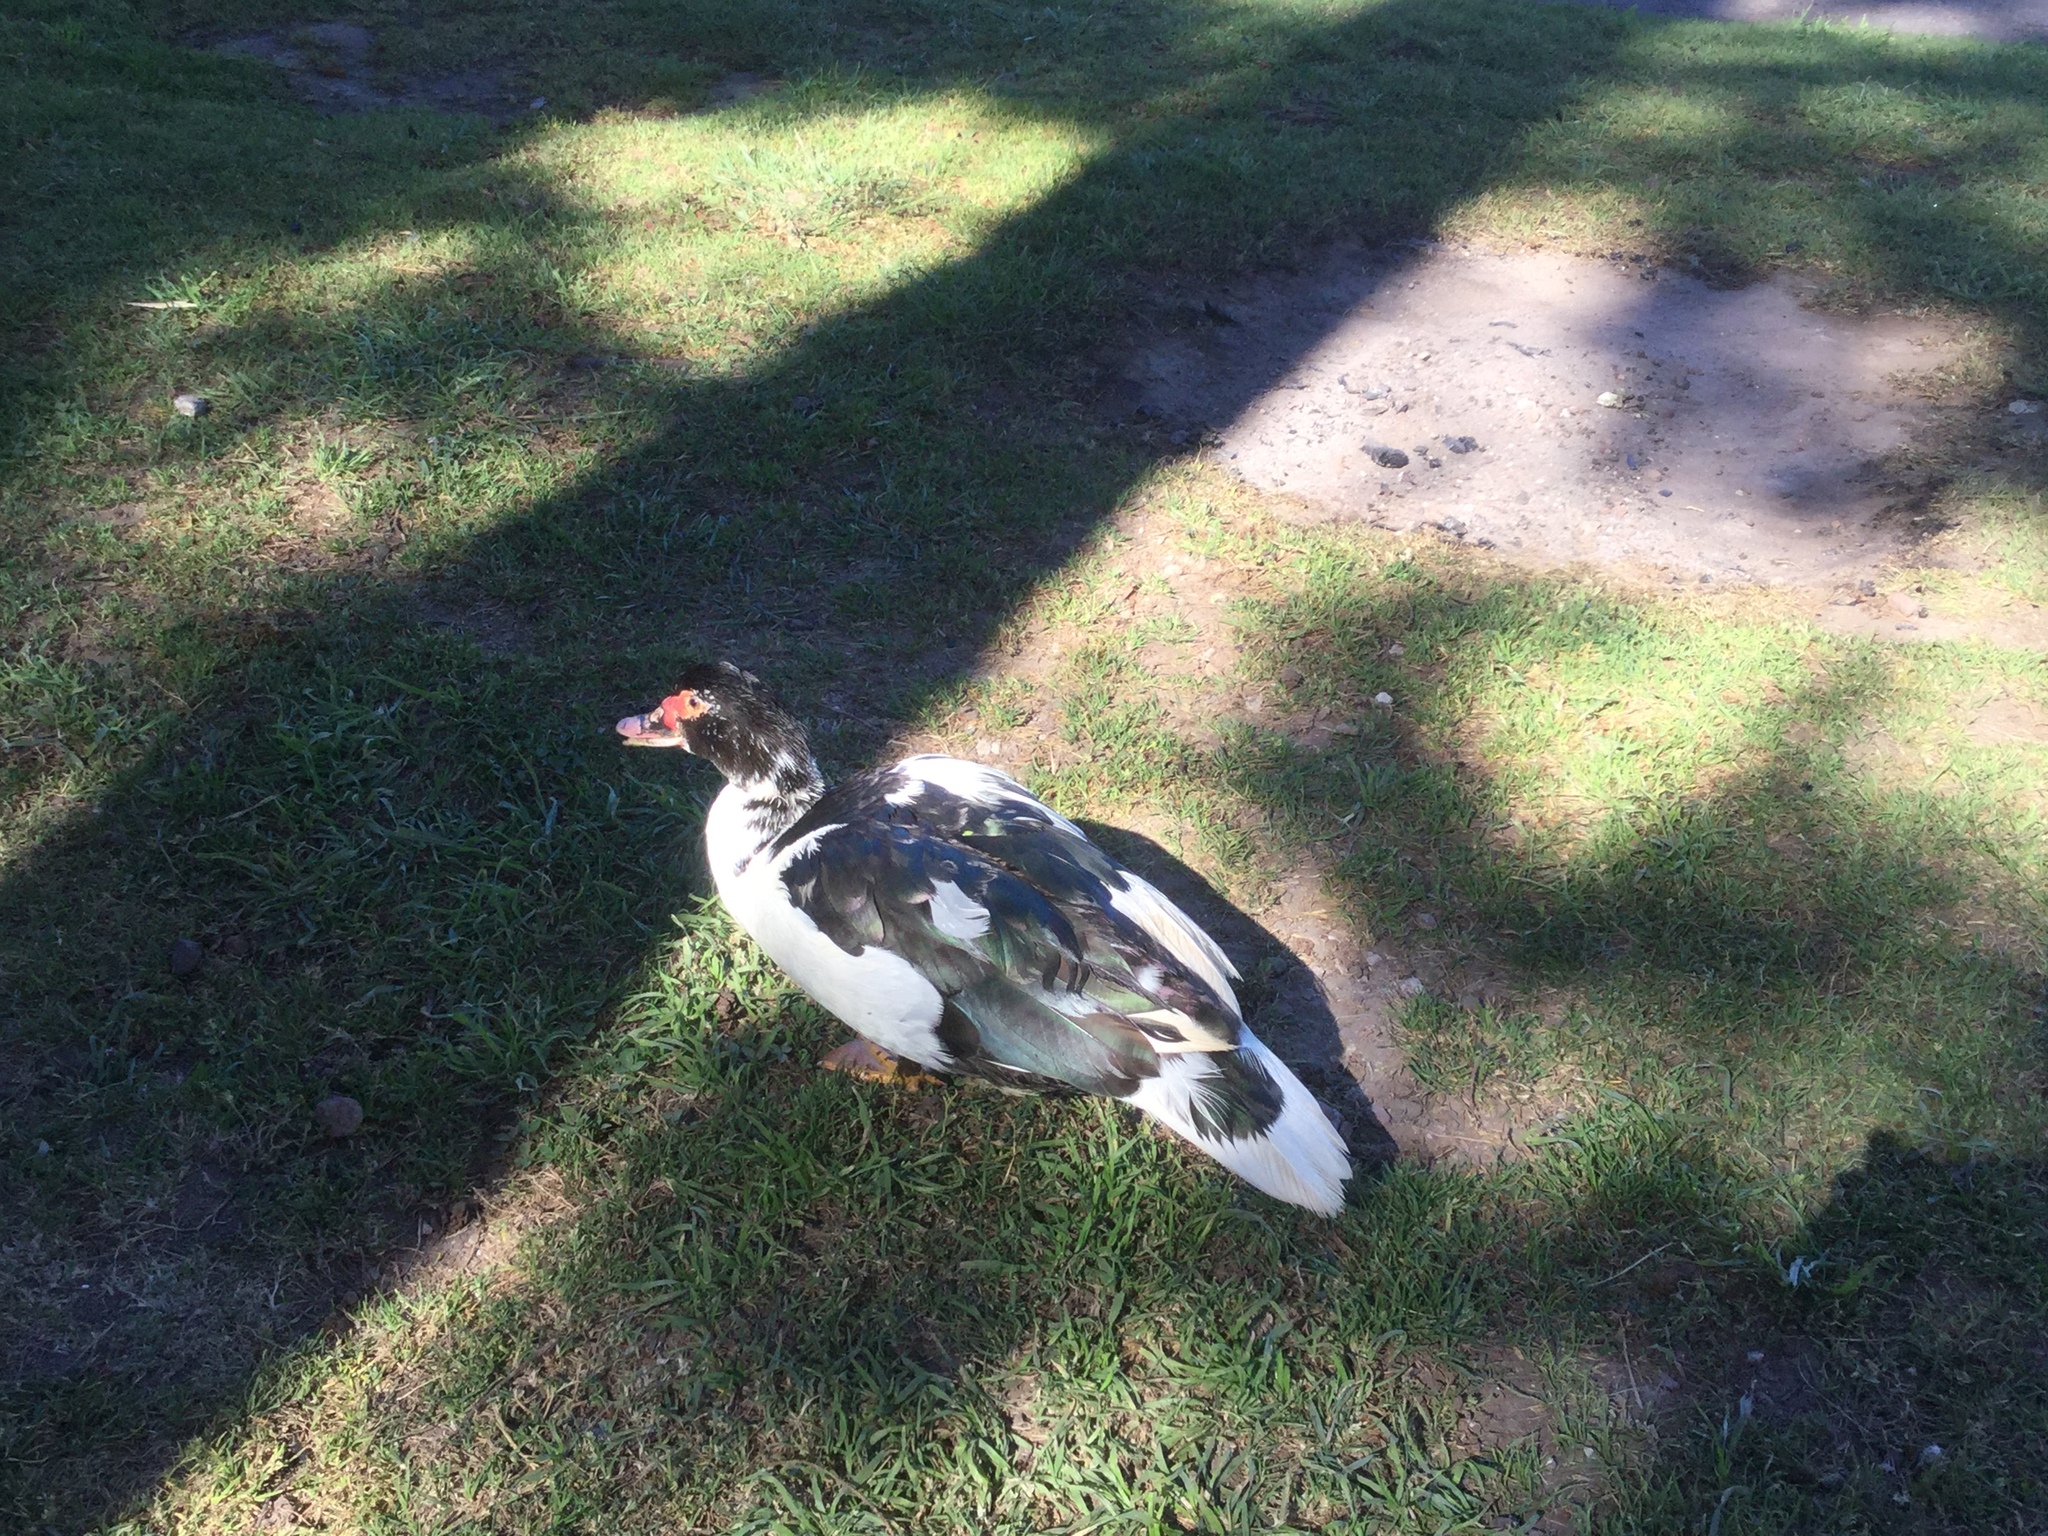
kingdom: Animalia
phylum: Chordata
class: Aves
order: Anseriformes
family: Anatidae
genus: Cairina
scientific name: Cairina moschata
